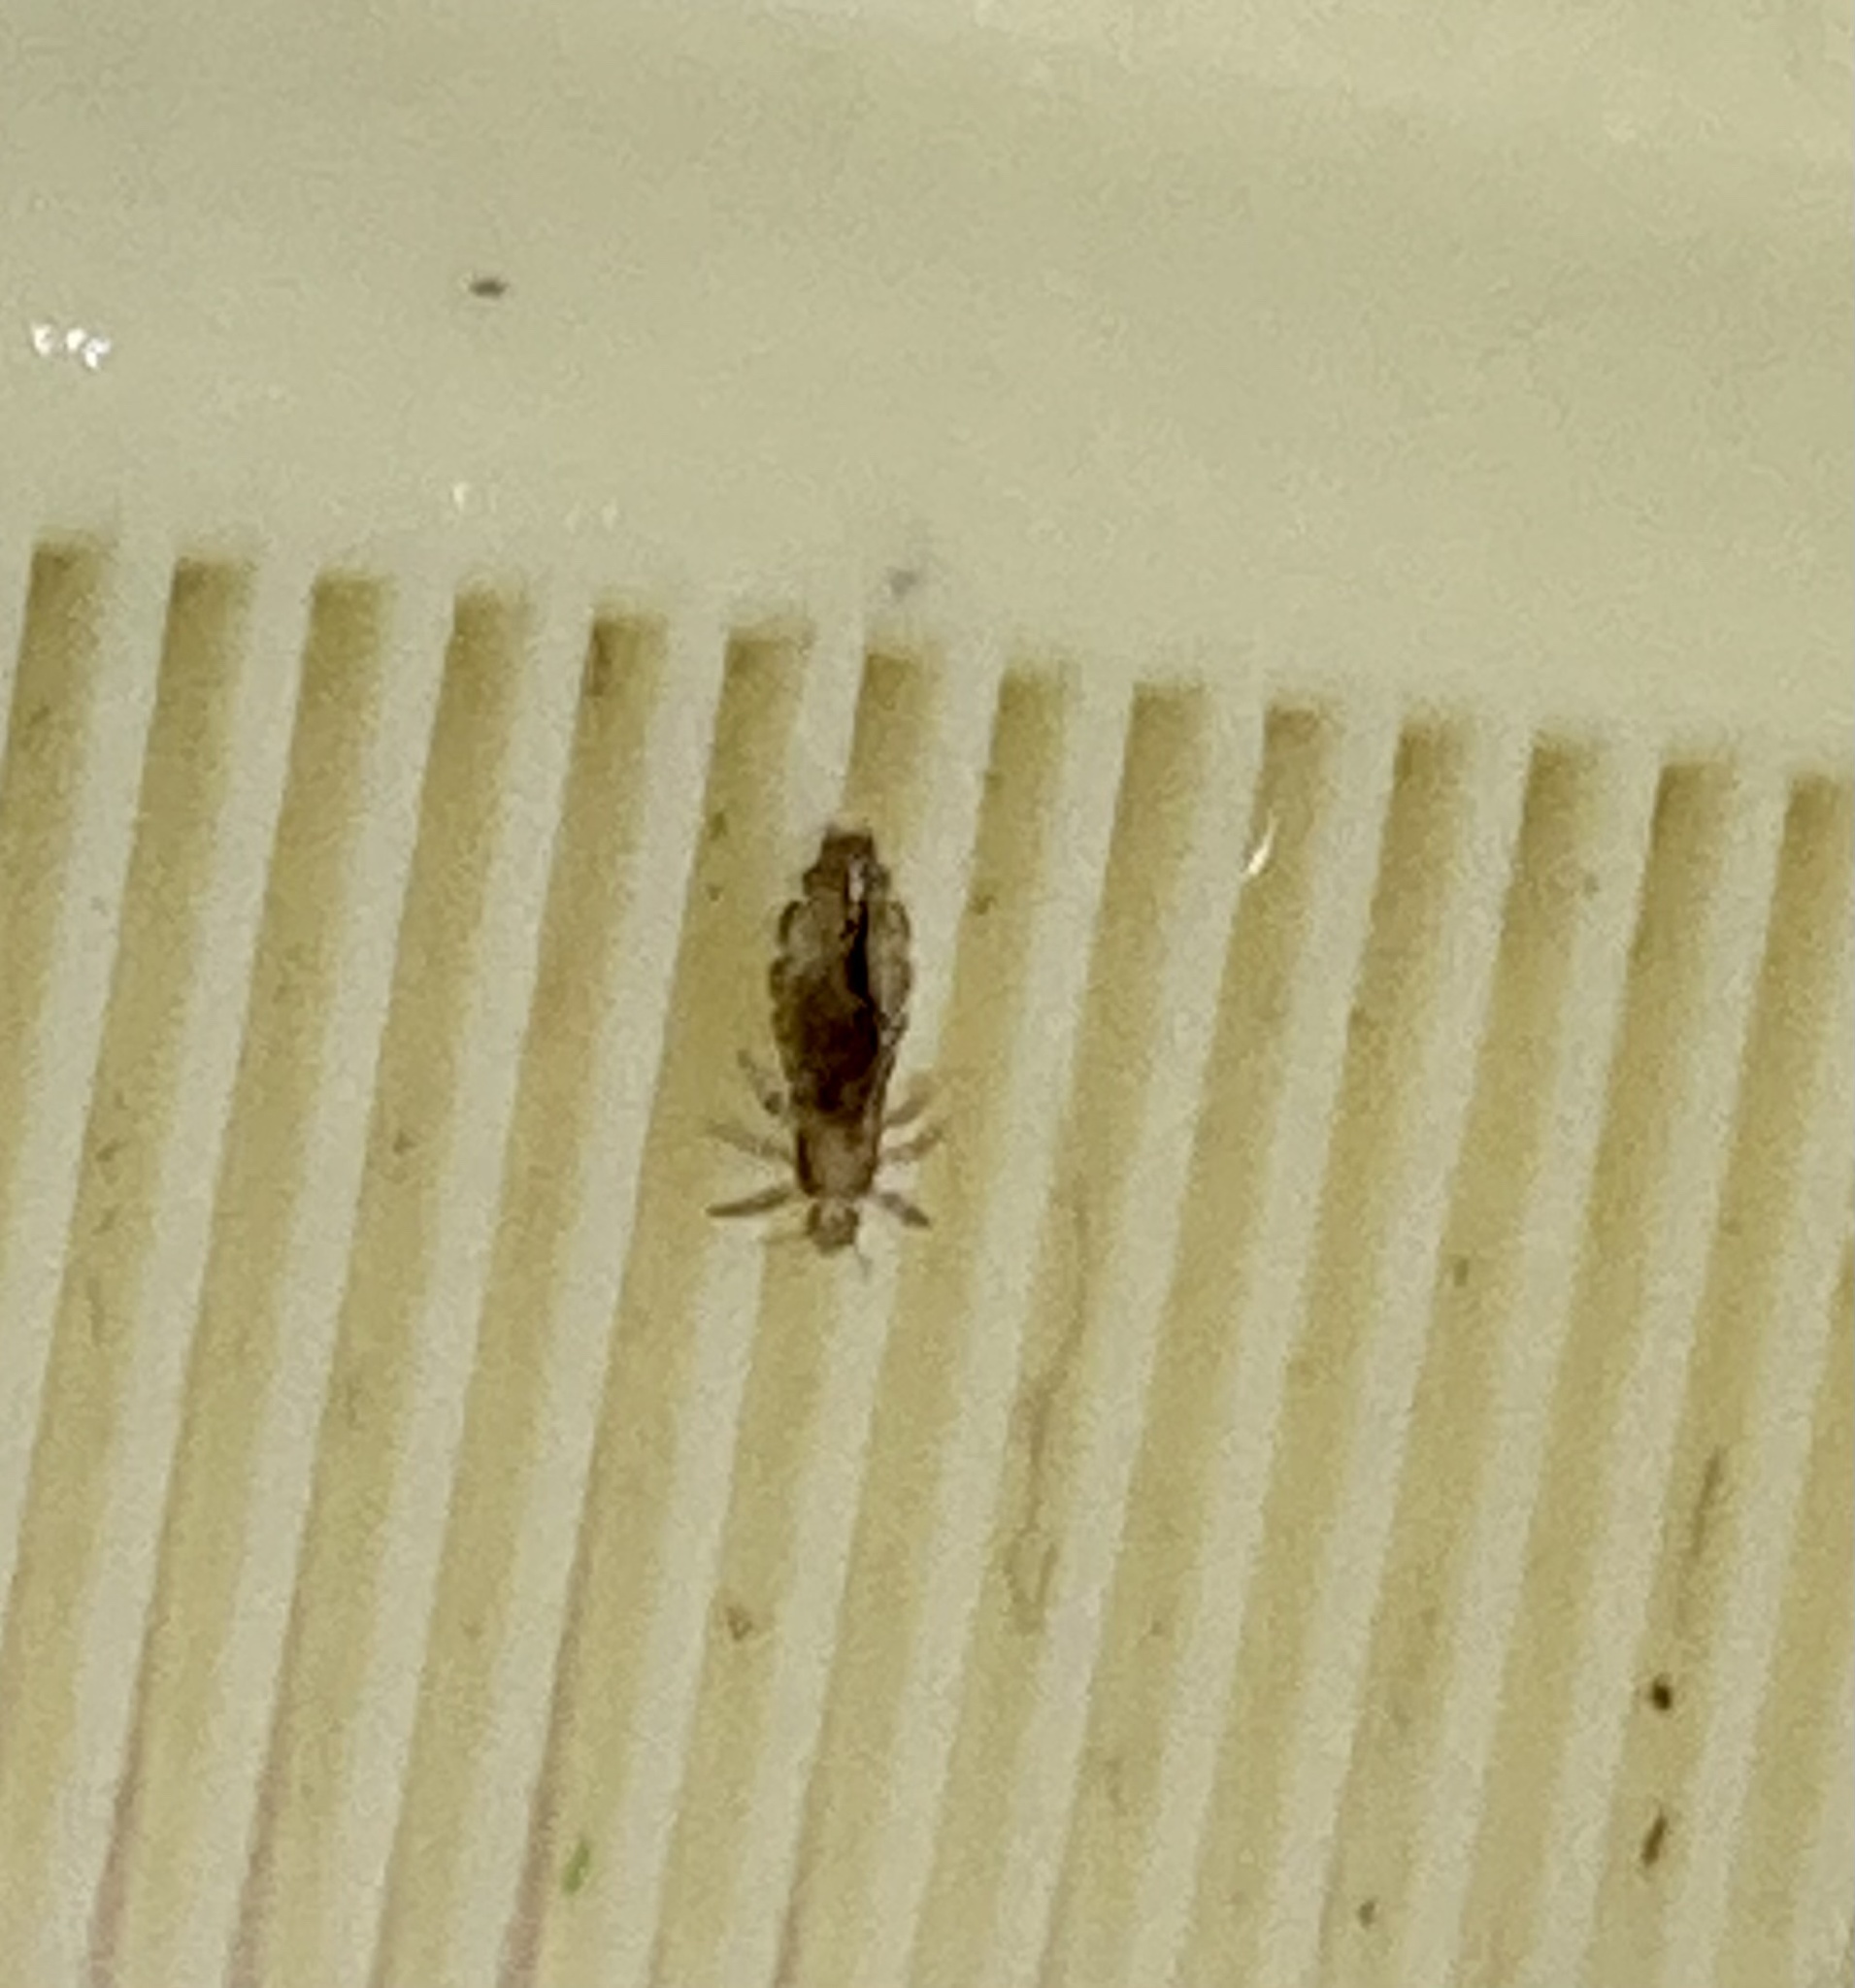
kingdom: Animalia
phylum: Arthropoda
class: Insecta
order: Psocodea
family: Pediculidae
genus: Pediculus
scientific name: Pediculus humanus
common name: Body louse
